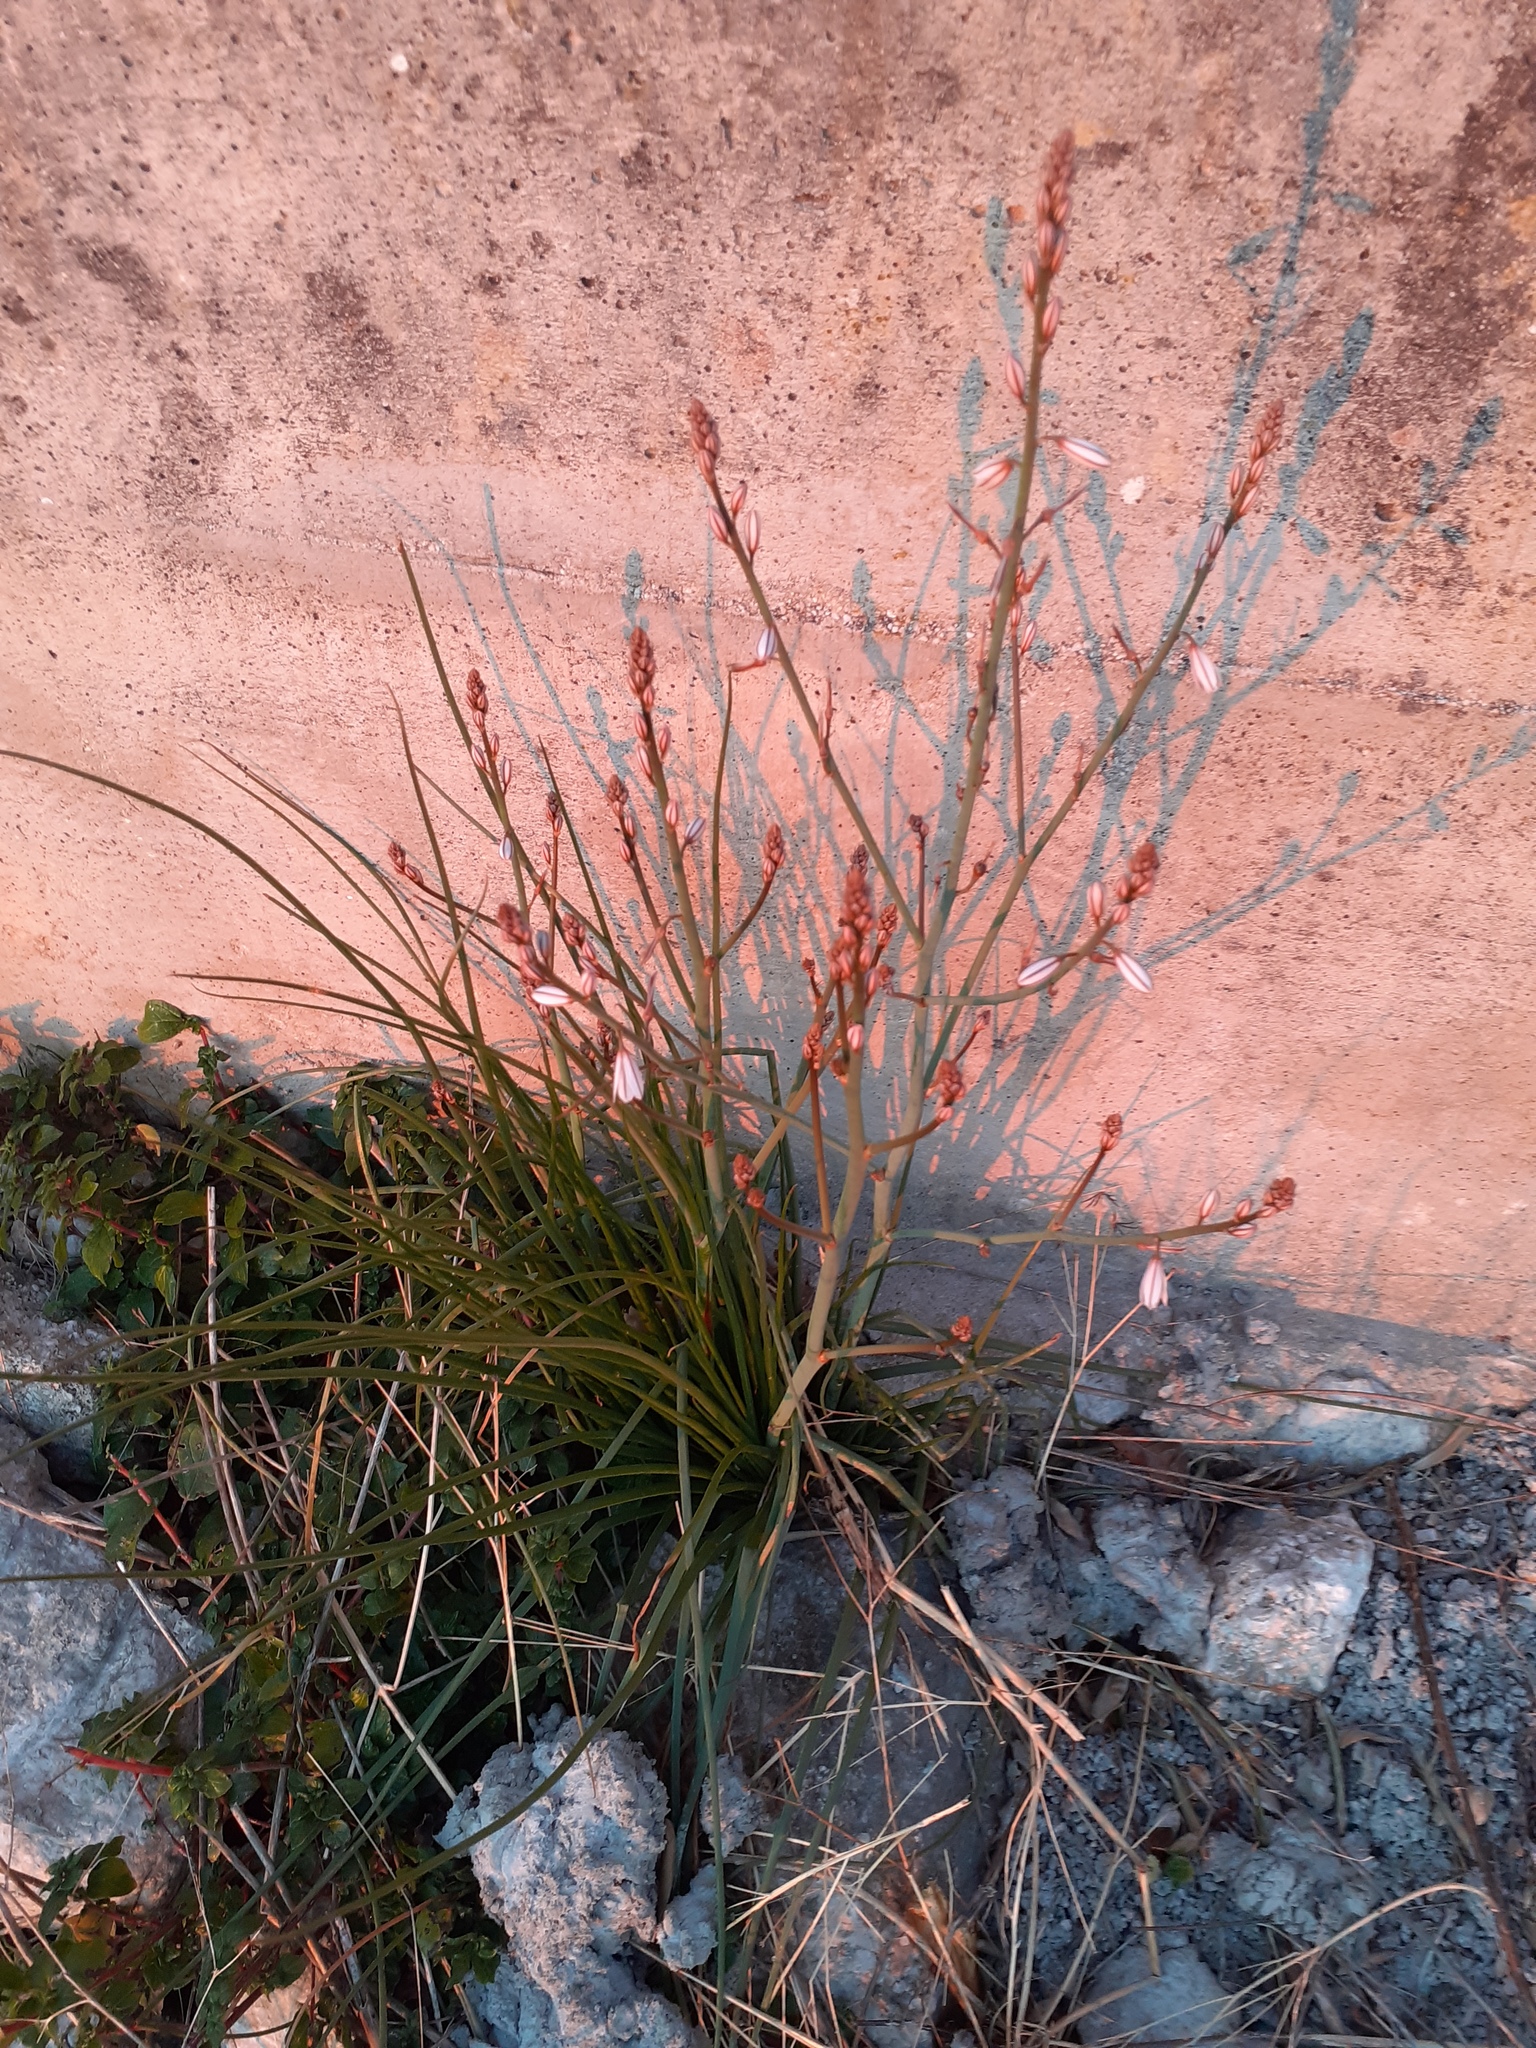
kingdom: Plantae
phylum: Tracheophyta
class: Liliopsida
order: Asparagales
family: Asphodelaceae
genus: Asphodelus
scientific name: Asphodelus fistulosus
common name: Onionweed
